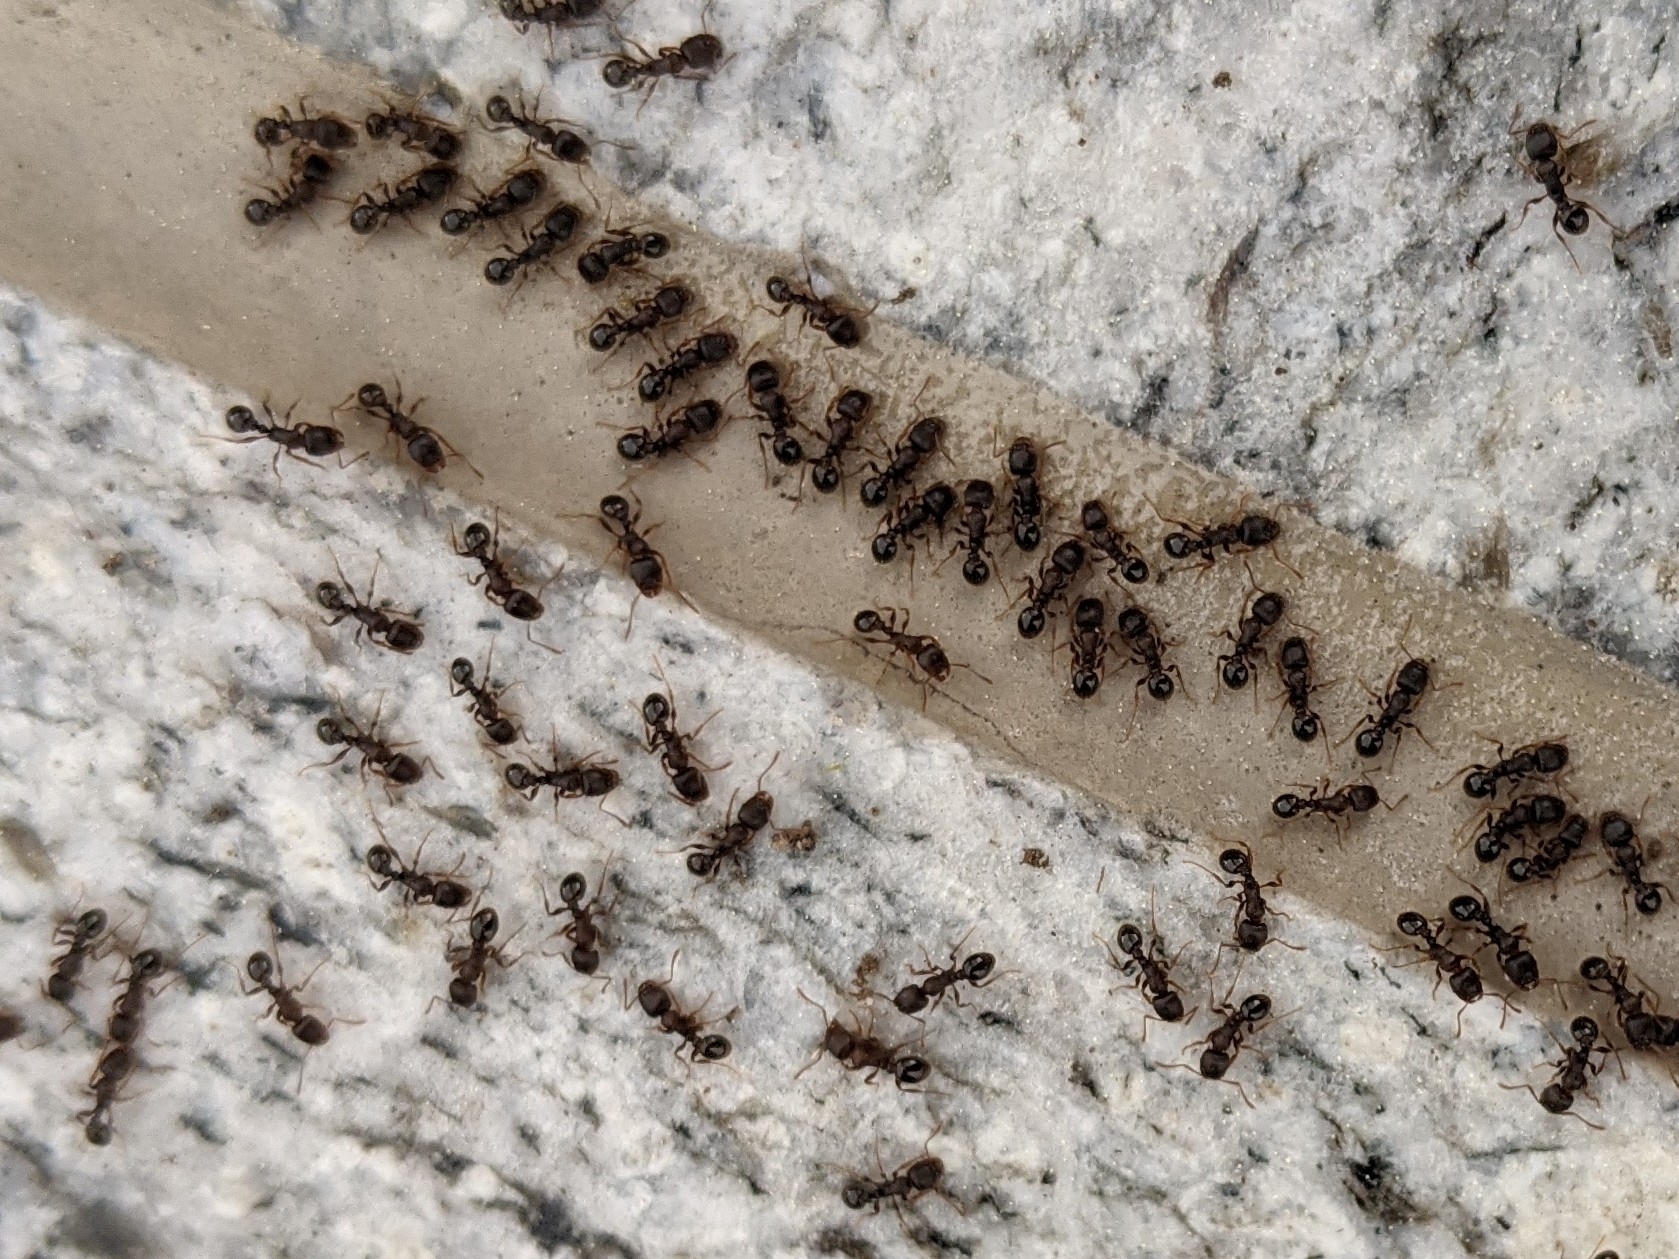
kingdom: Animalia
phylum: Arthropoda
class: Insecta
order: Hymenoptera
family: Formicidae
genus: Tetramorium
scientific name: Tetramorium immigrans
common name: Pavement ant
